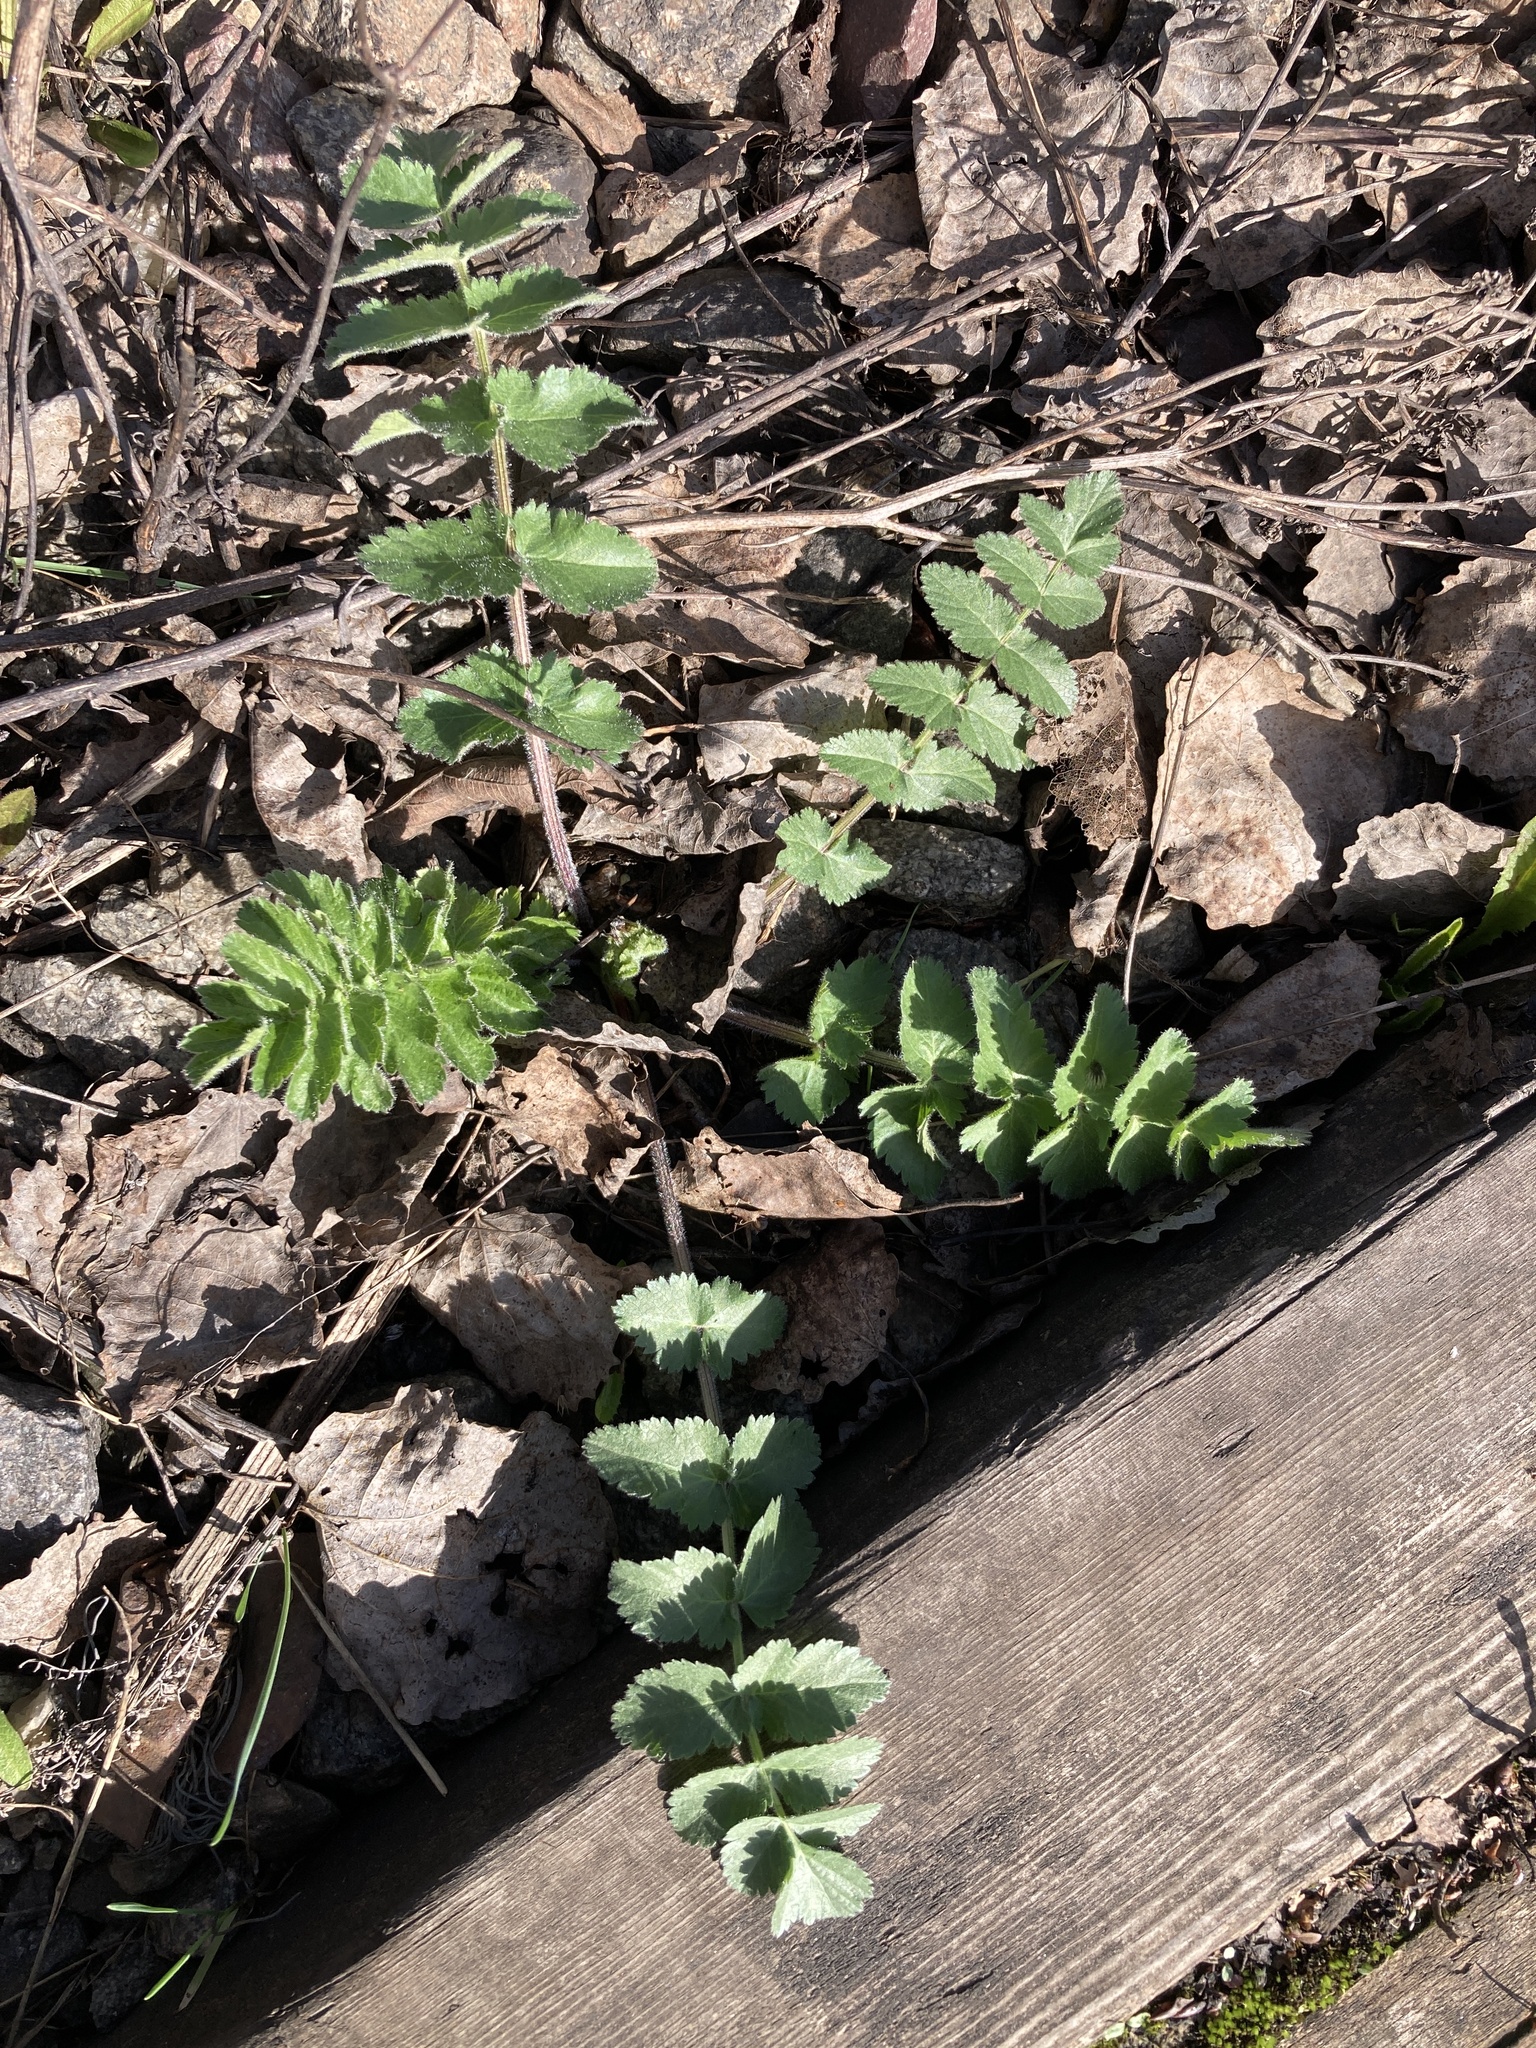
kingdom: Plantae
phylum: Tracheophyta
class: Magnoliopsida
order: Apiales
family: Apiaceae
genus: Pastinaca
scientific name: Pastinaca sativa
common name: Wild parsnip
